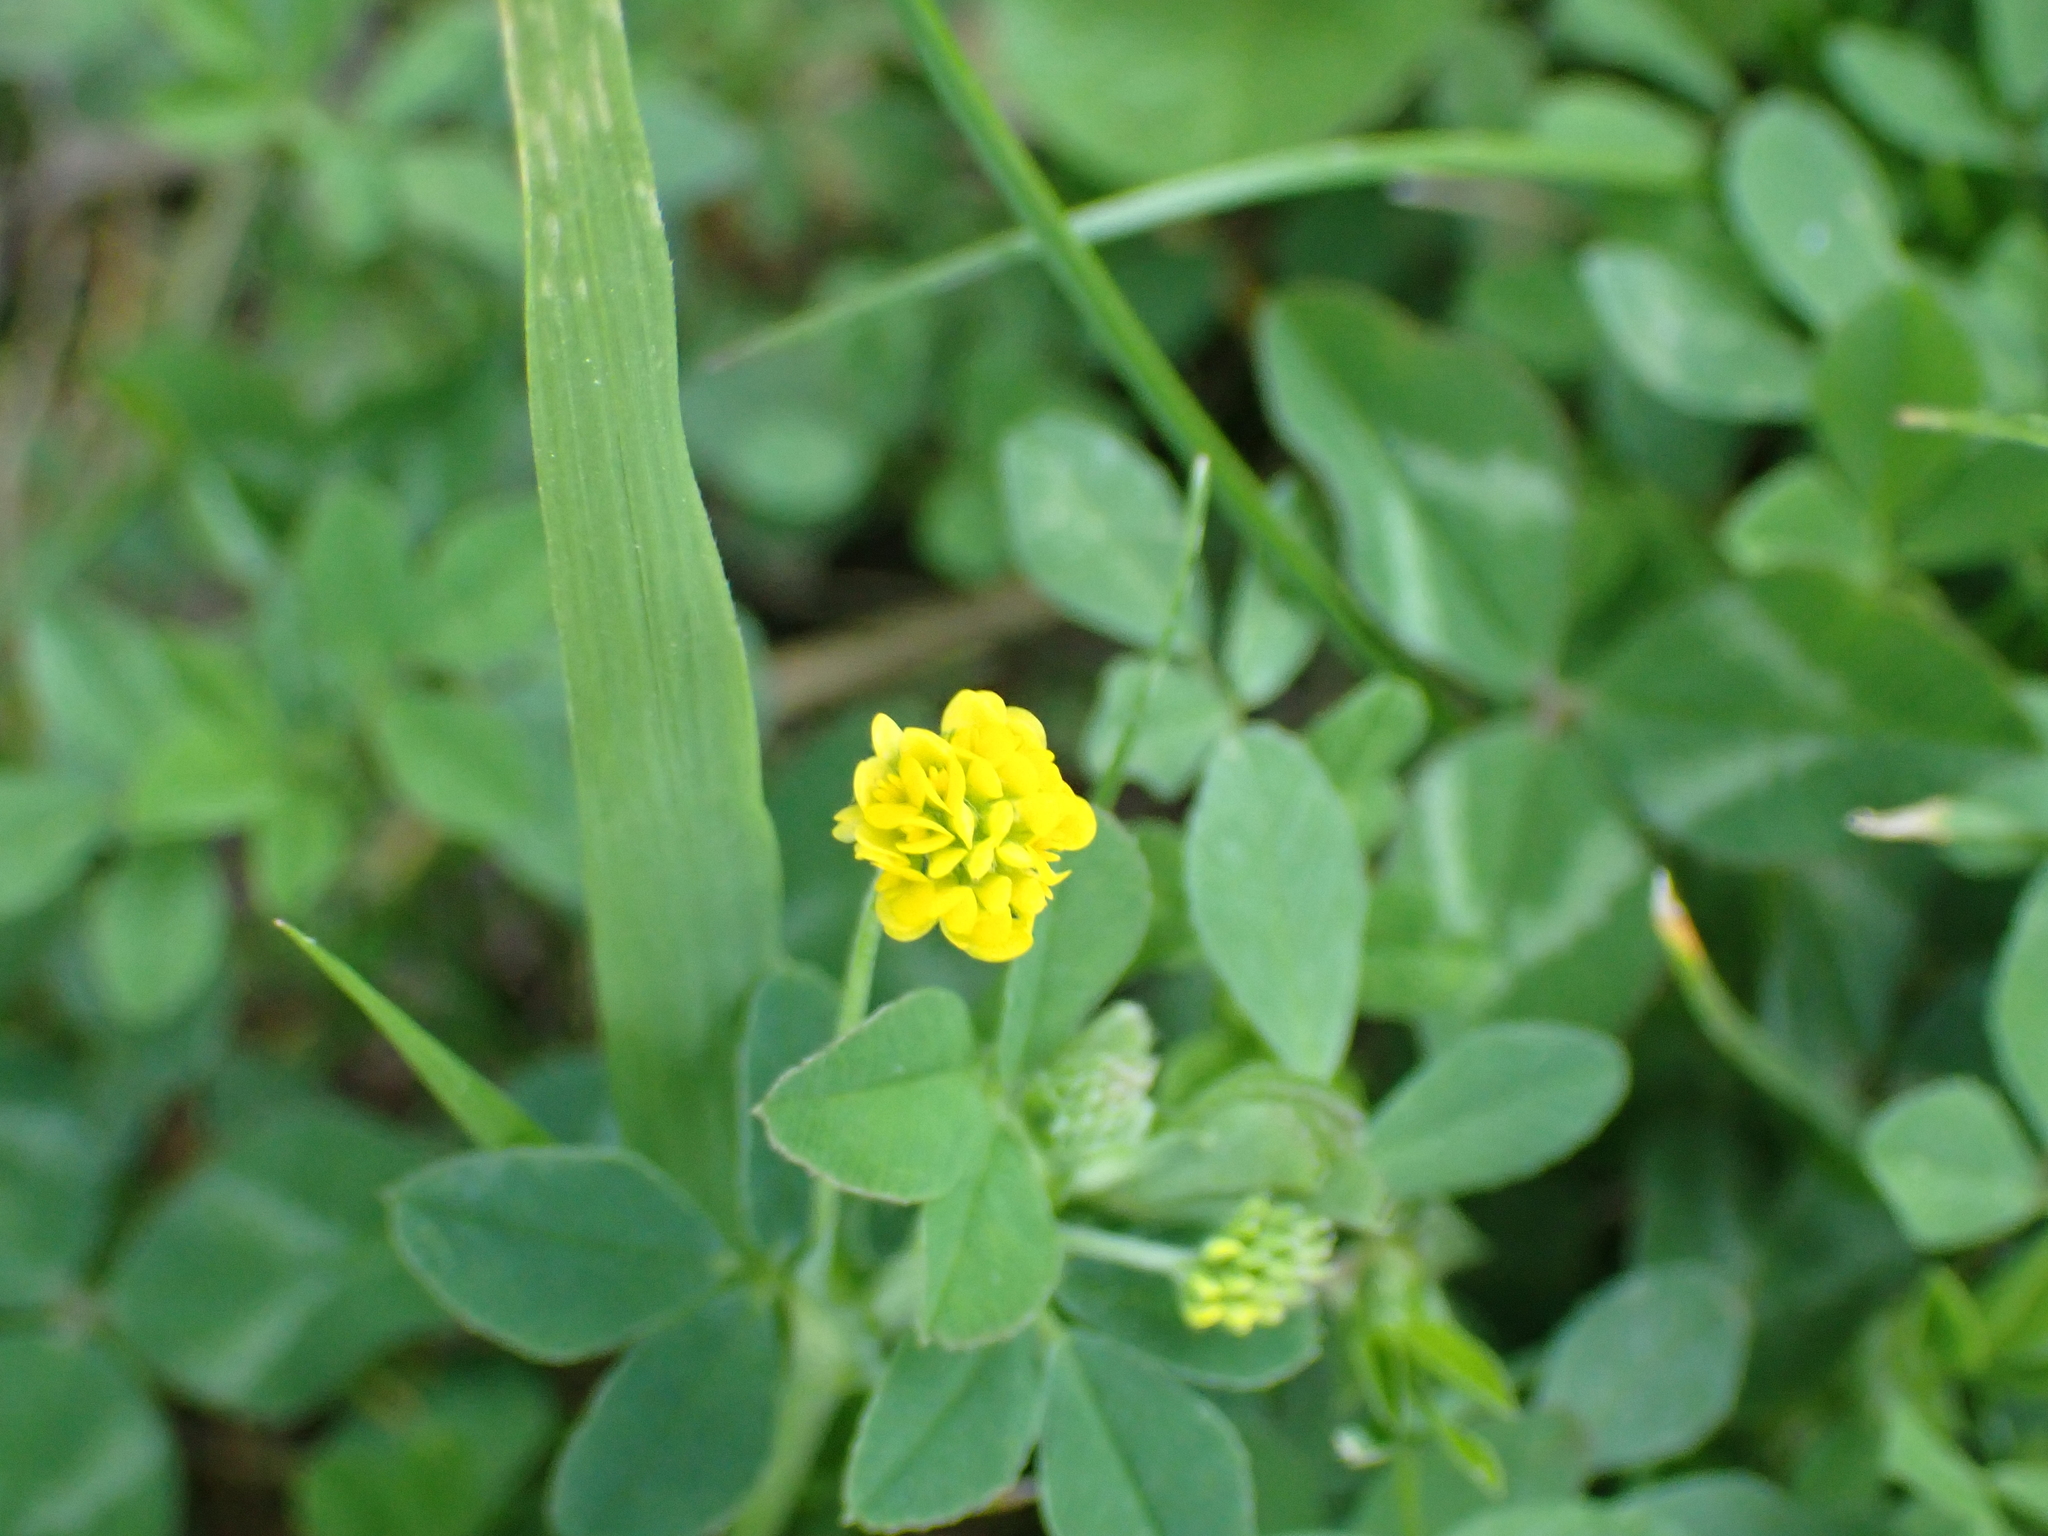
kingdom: Plantae
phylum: Tracheophyta
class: Magnoliopsida
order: Fabales
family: Fabaceae
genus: Medicago
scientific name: Medicago lupulina
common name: Black medick
